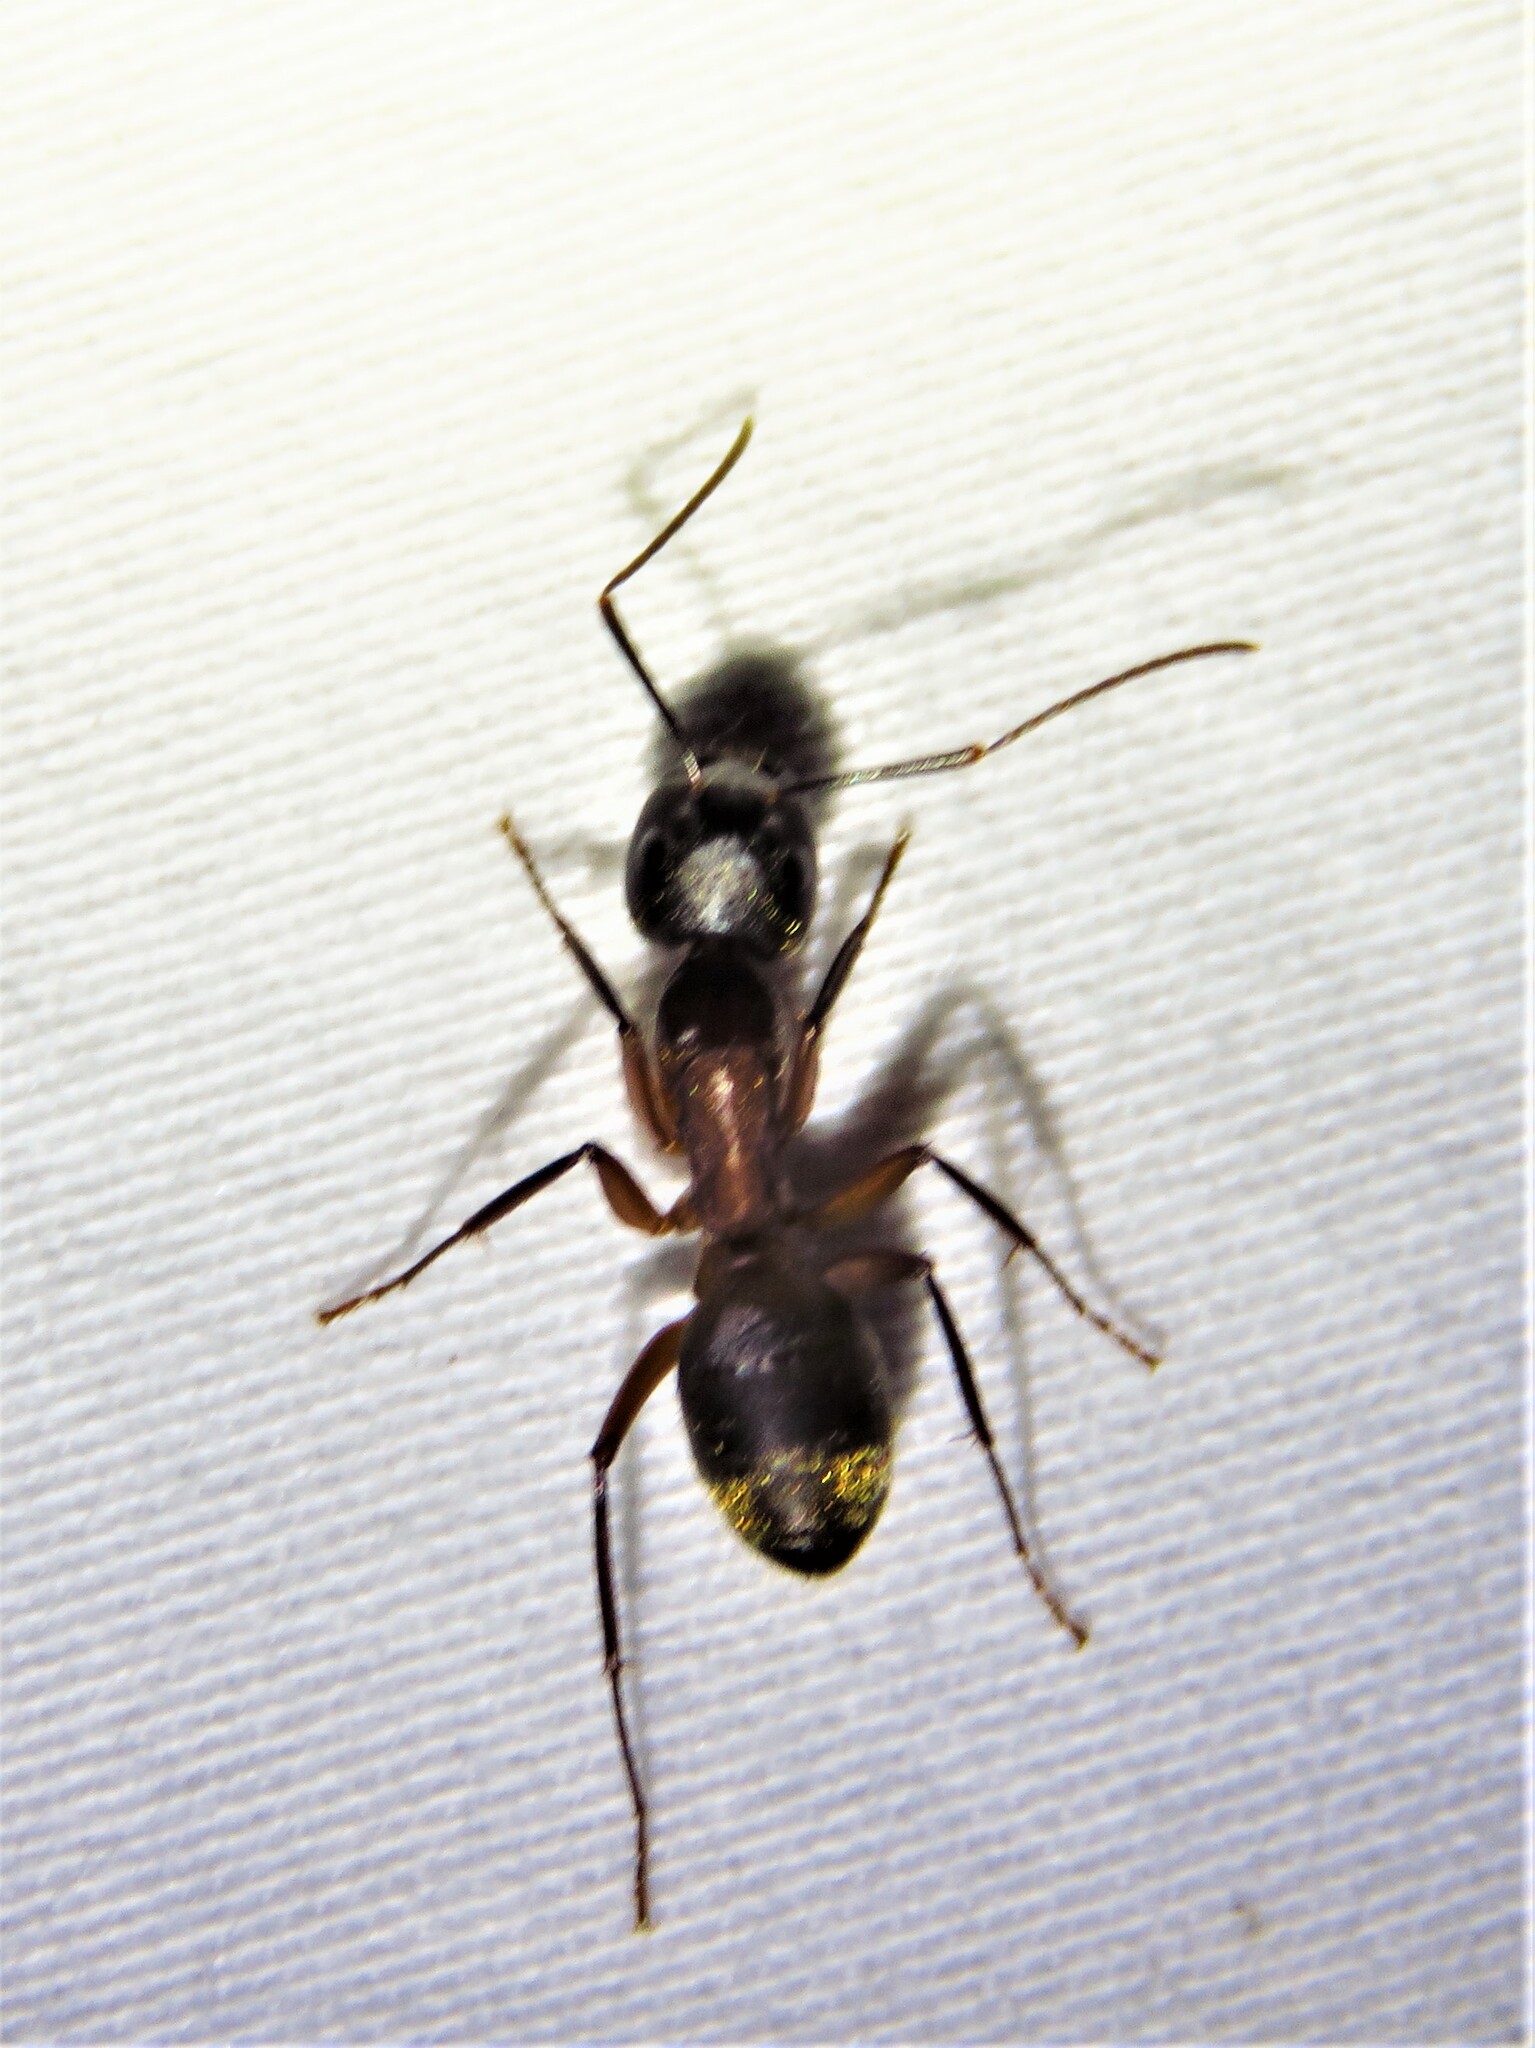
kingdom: Animalia
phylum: Arthropoda
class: Insecta
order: Hymenoptera
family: Formicidae
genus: Camponotus
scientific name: Camponotus chromaiodes
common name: Red carpenter ant
